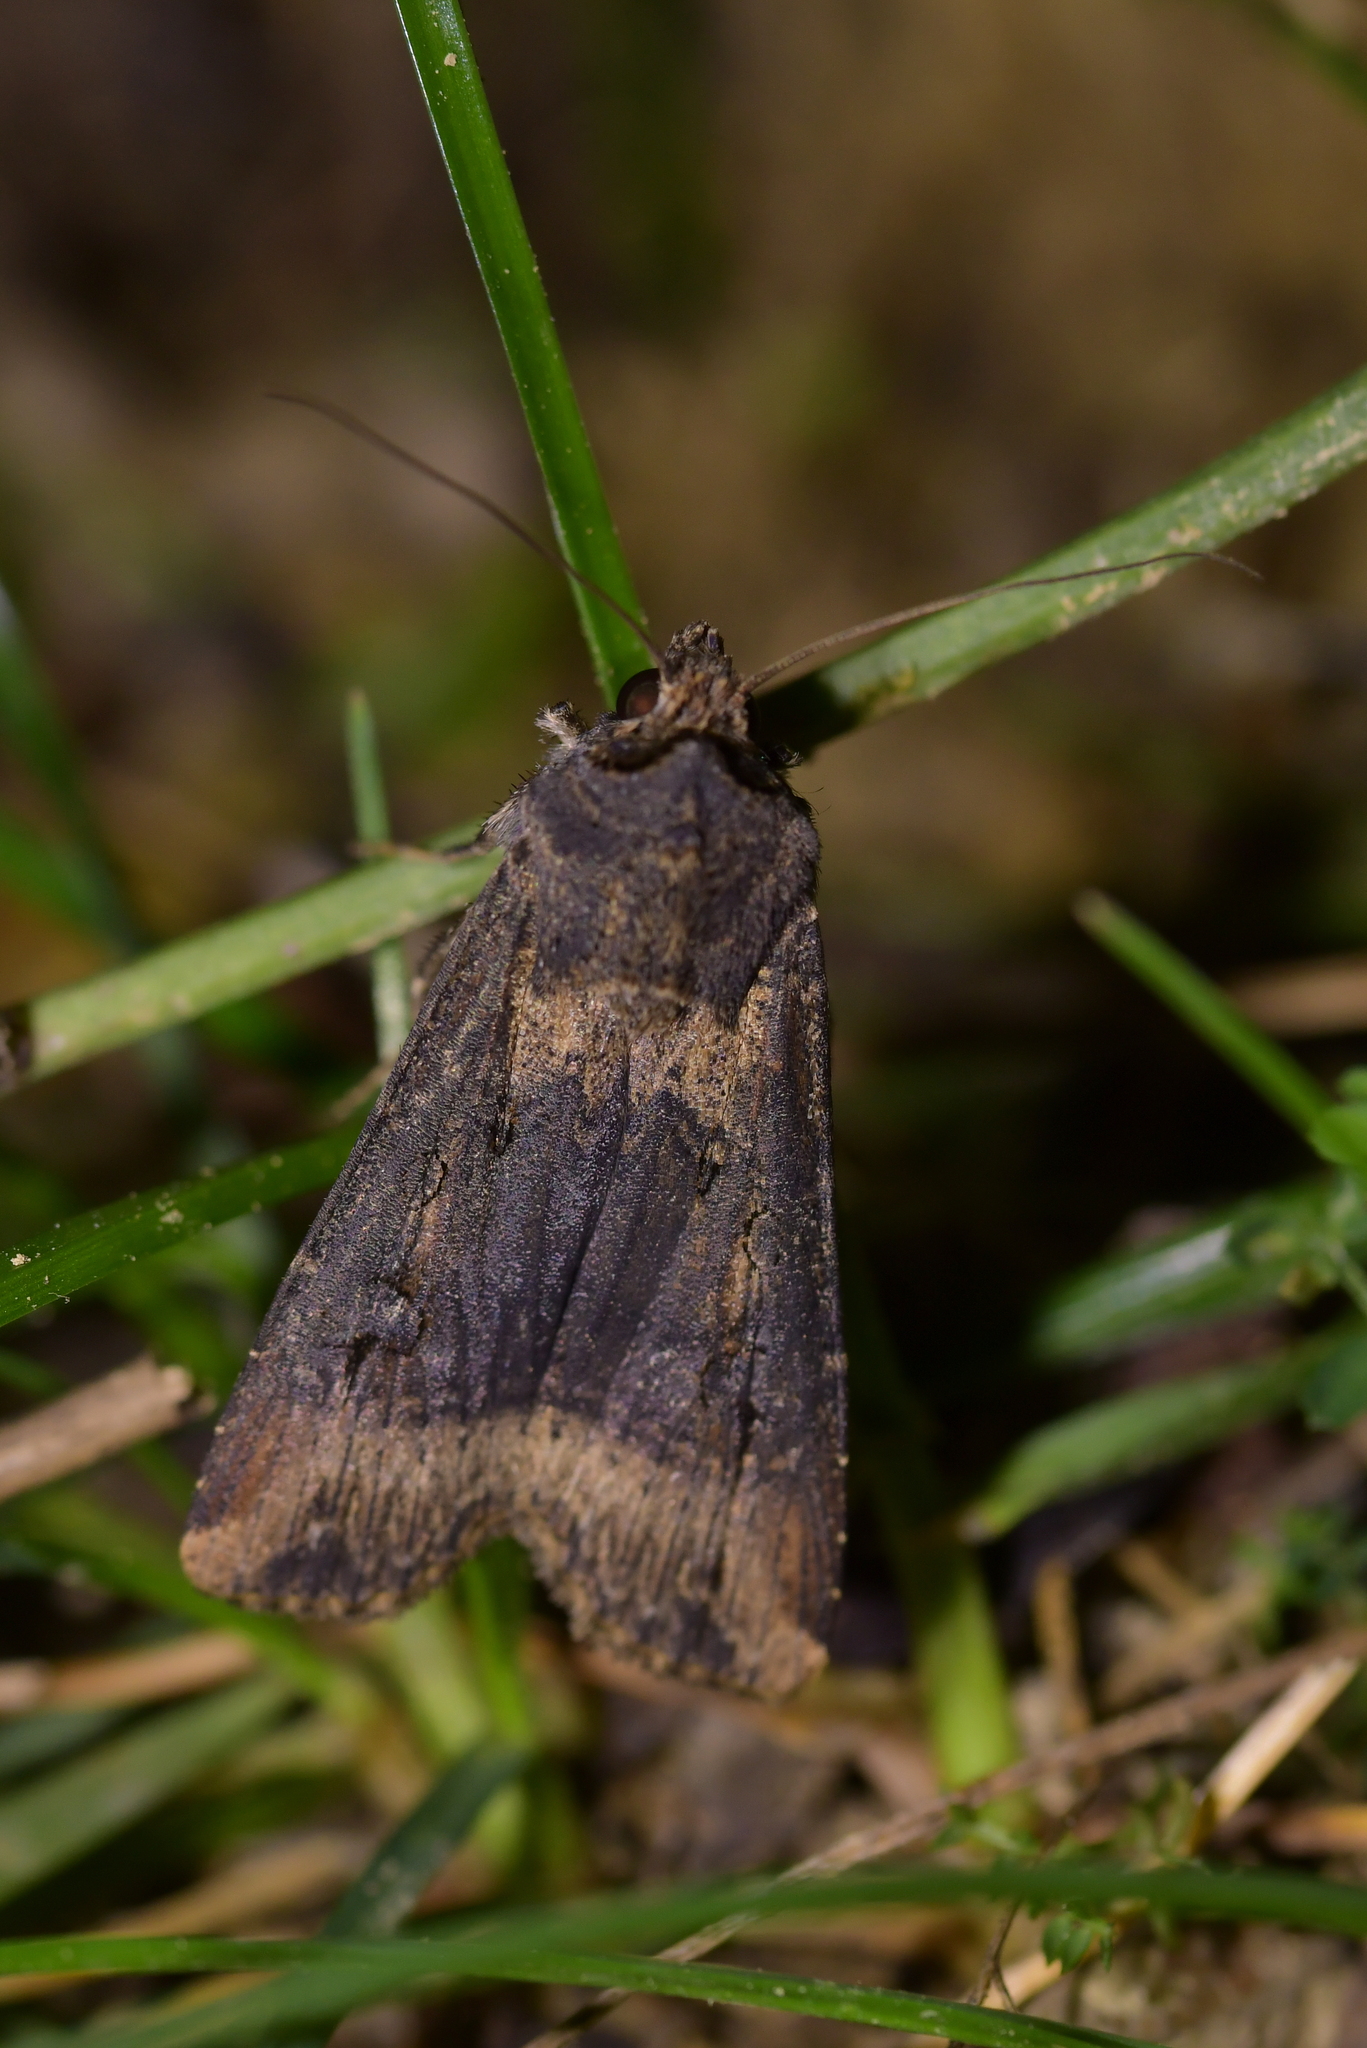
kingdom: Animalia
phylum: Arthropoda
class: Insecta
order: Lepidoptera
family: Noctuidae
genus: Agrotis
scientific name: Agrotis ipsilon
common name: Dark sword-grass
